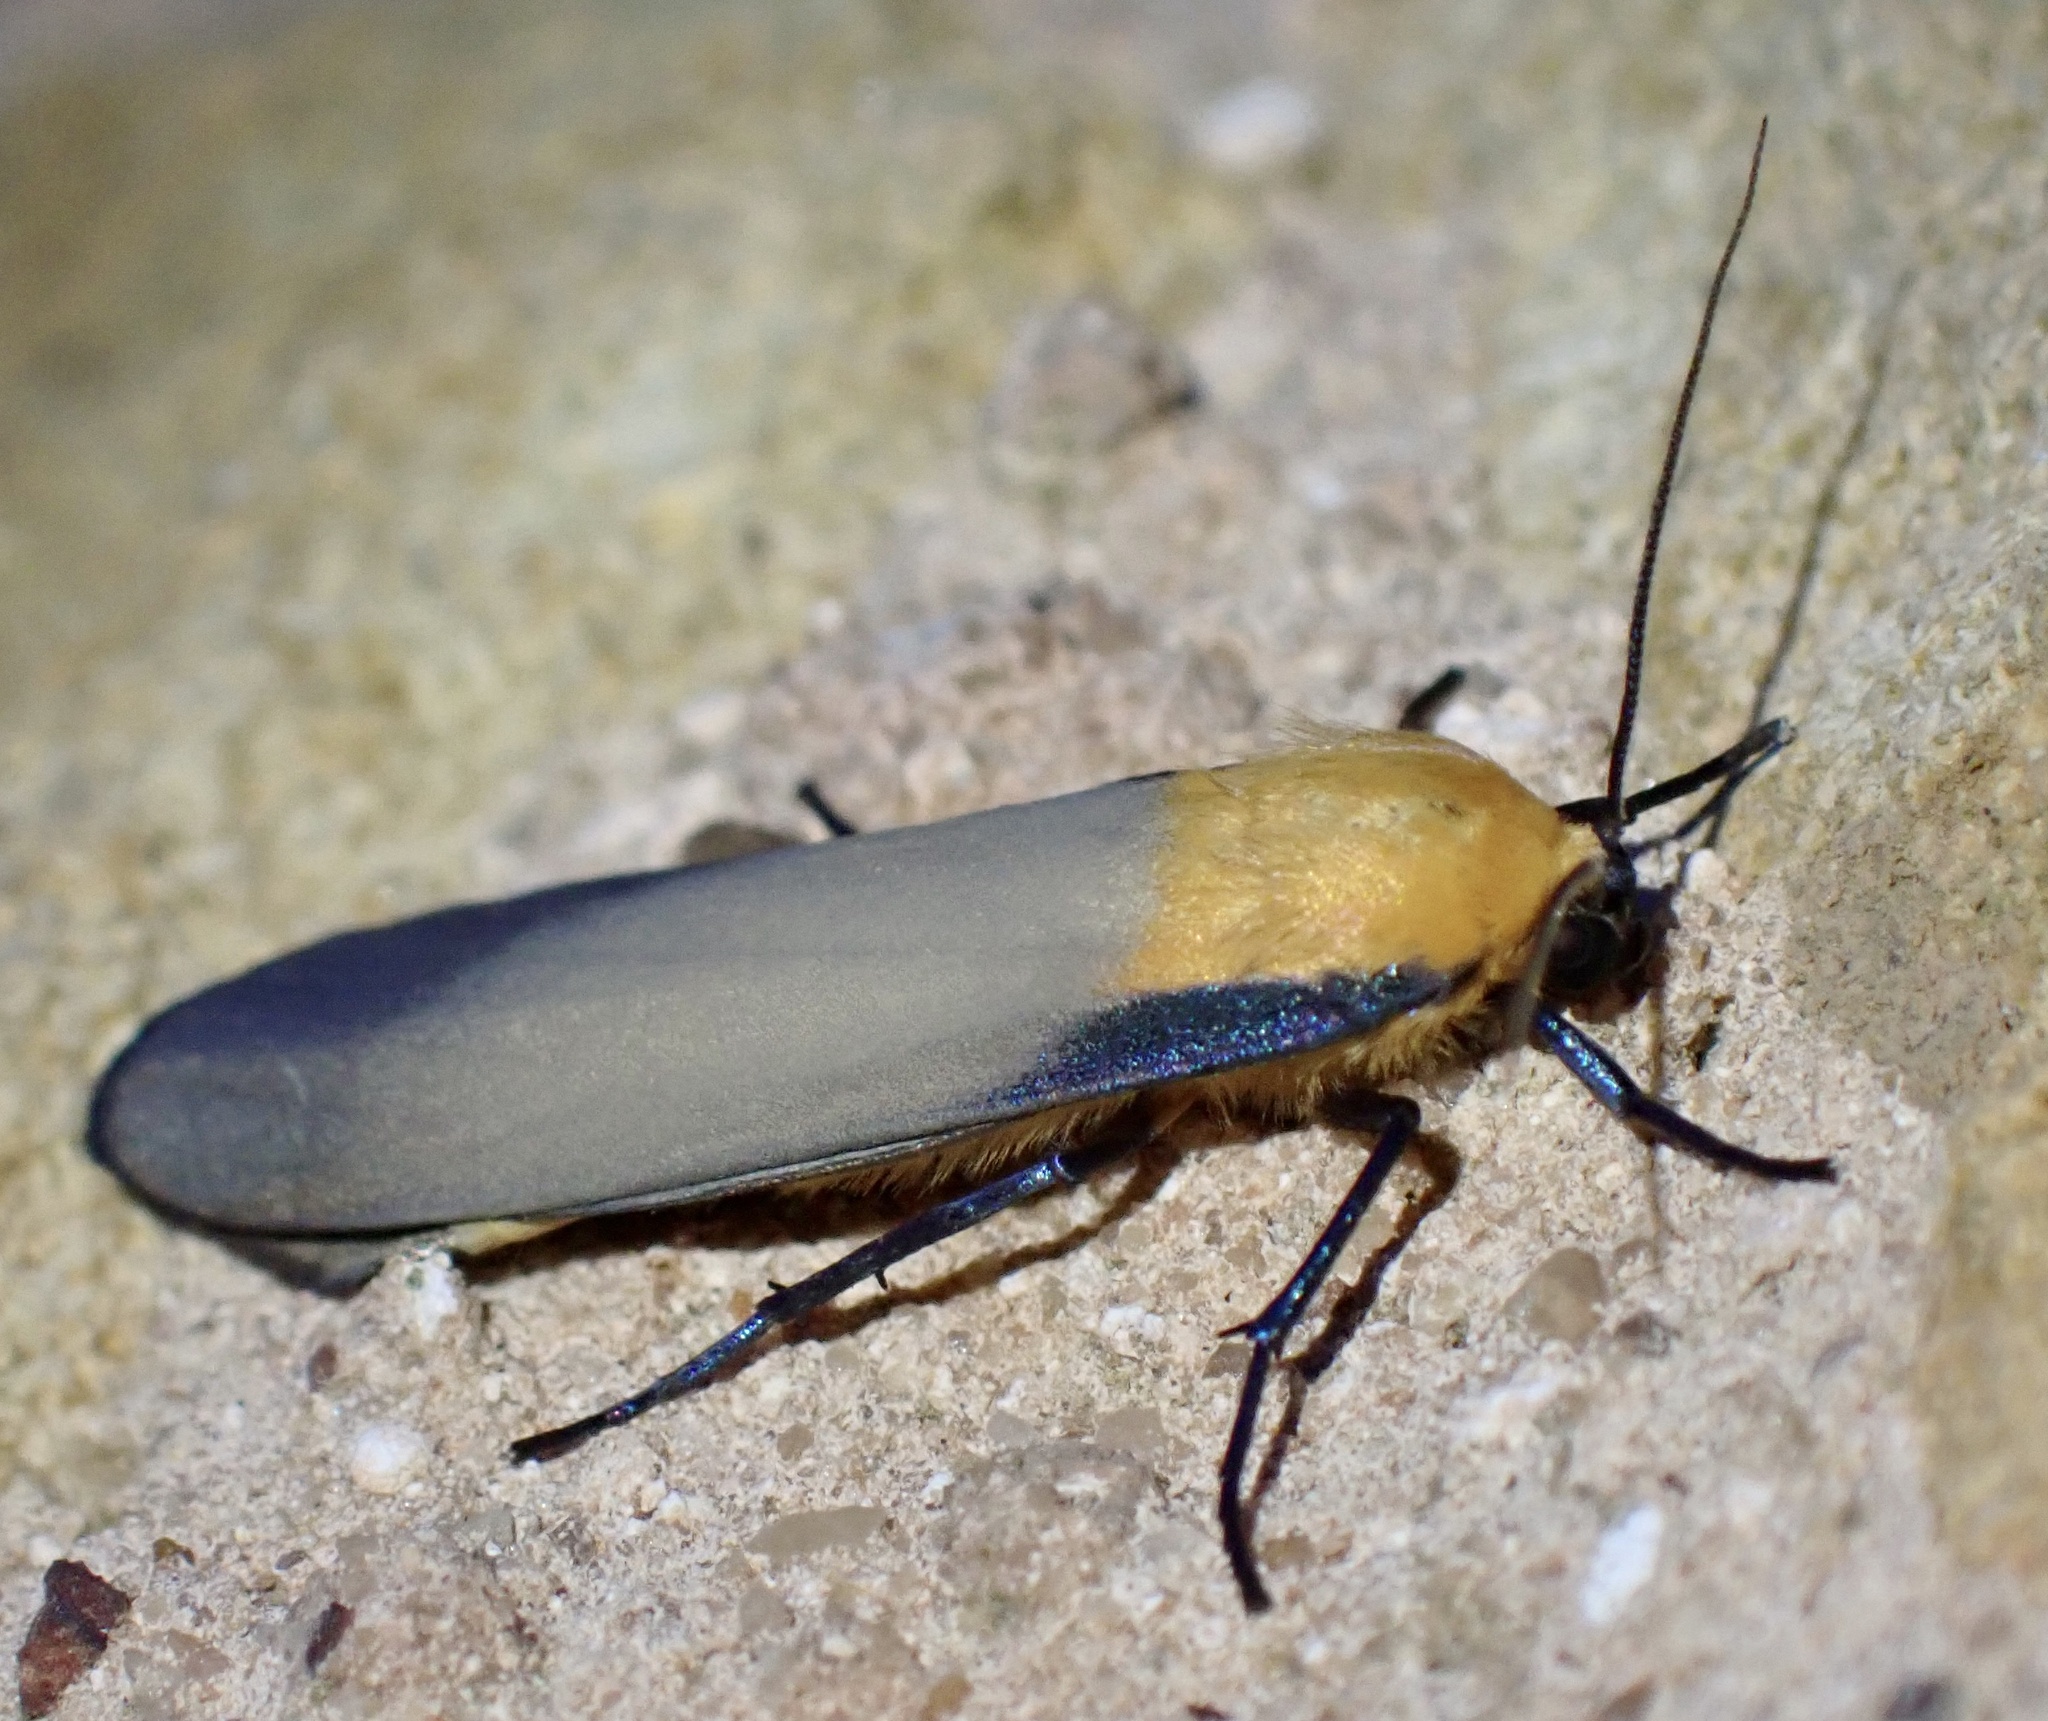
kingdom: Animalia
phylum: Arthropoda
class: Insecta
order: Lepidoptera
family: Erebidae
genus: Lithosia
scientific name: Lithosia quadra
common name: Four-spotted footman
